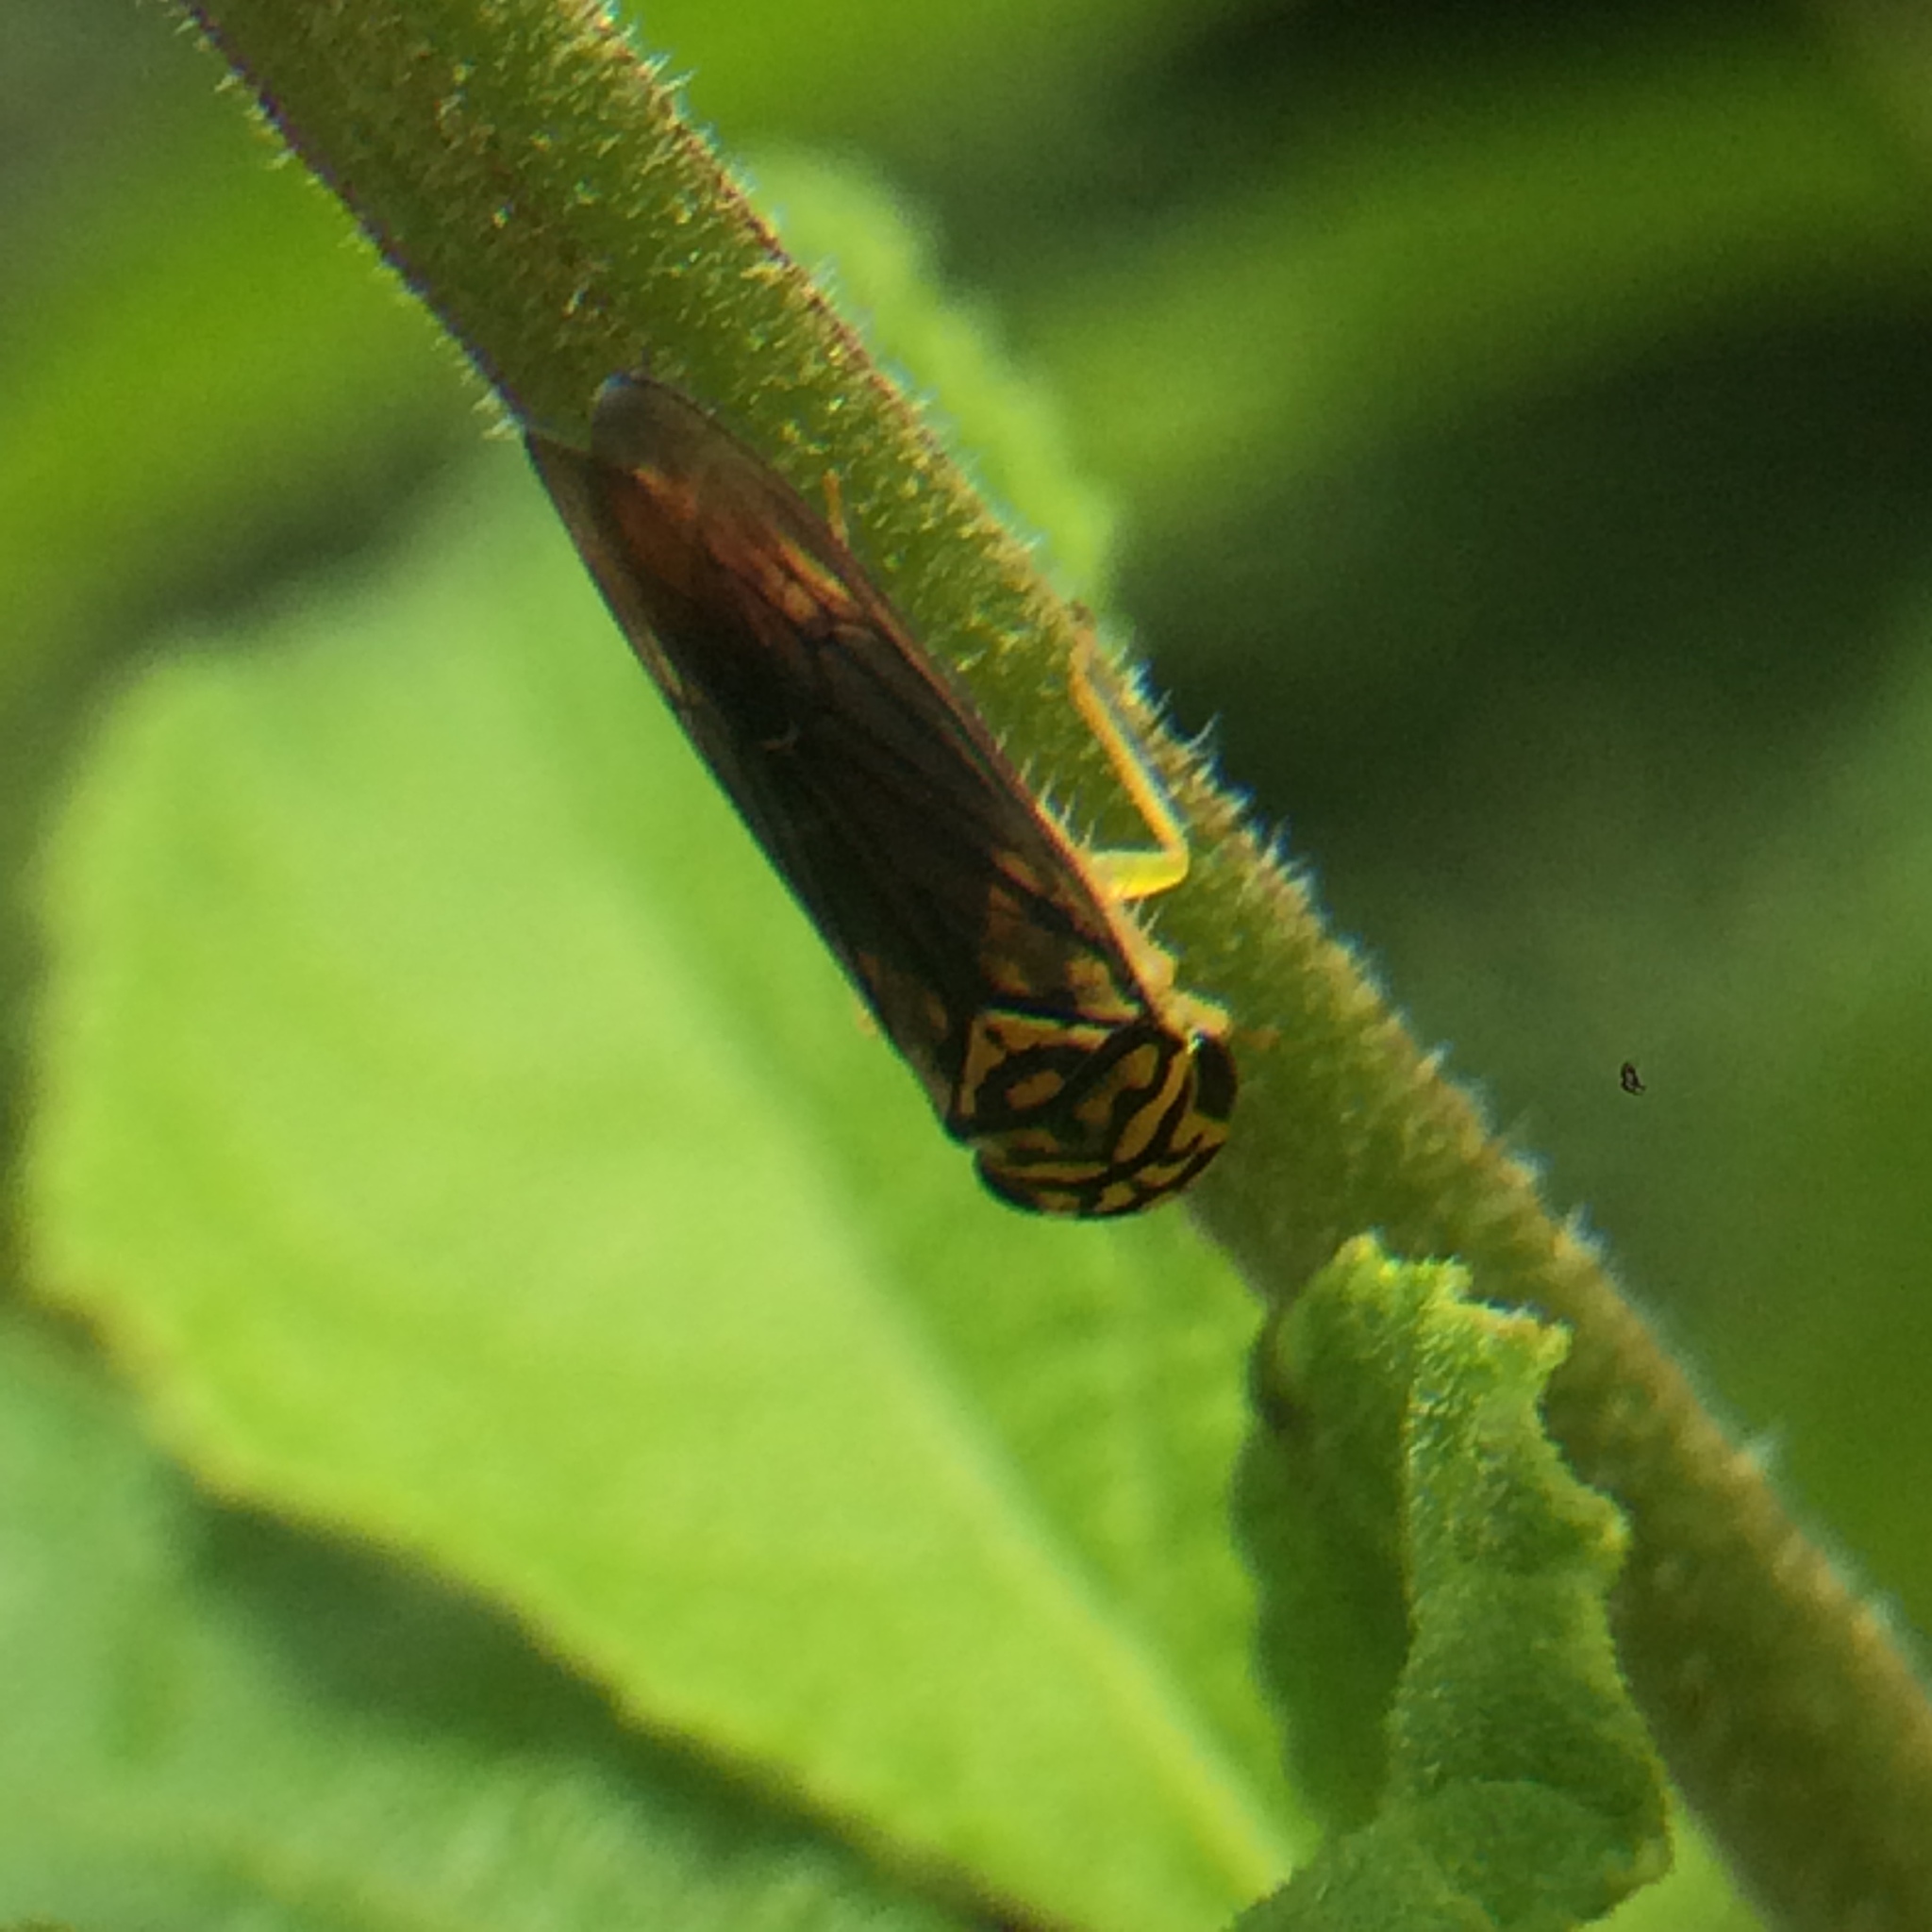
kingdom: Animalia
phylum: Arthropoda
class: Insecta
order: Hemiptera
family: Cicadellidae
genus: Dilobopterus
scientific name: Dilobopterus costalimai
